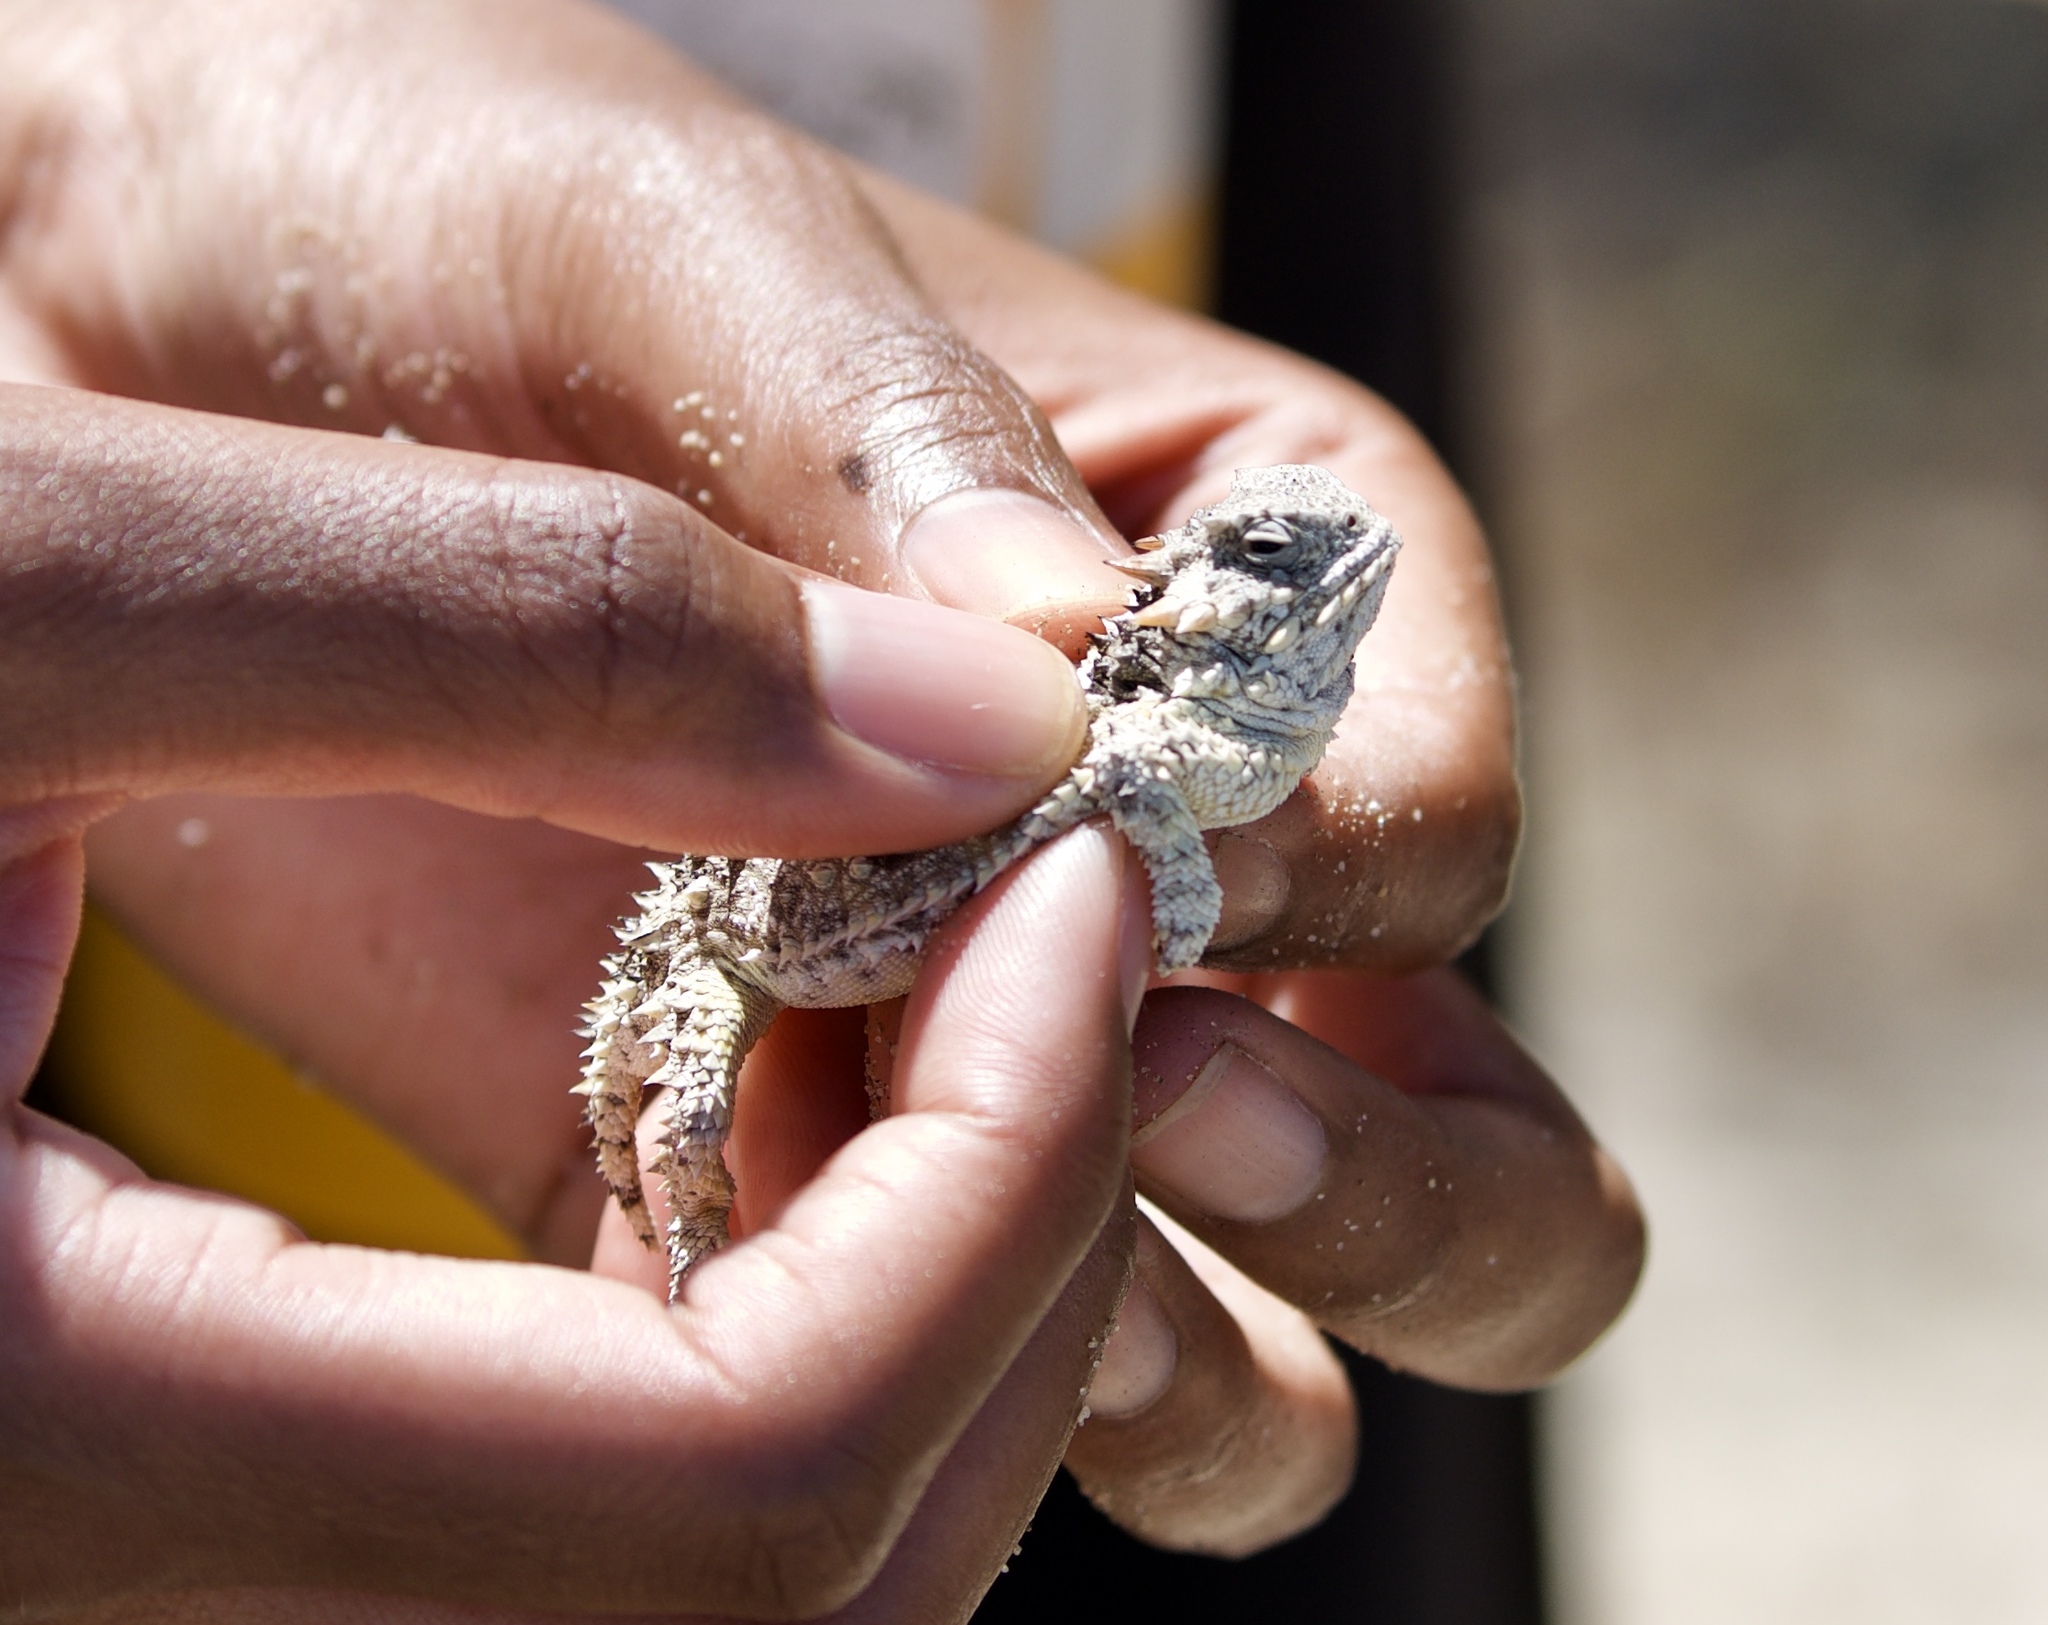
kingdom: Animalia
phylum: Chordata
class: Squamata
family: Phrynosomatidae
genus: Phrynosoma
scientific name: Phrynosoma blainvillii
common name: San diego horned lizard
